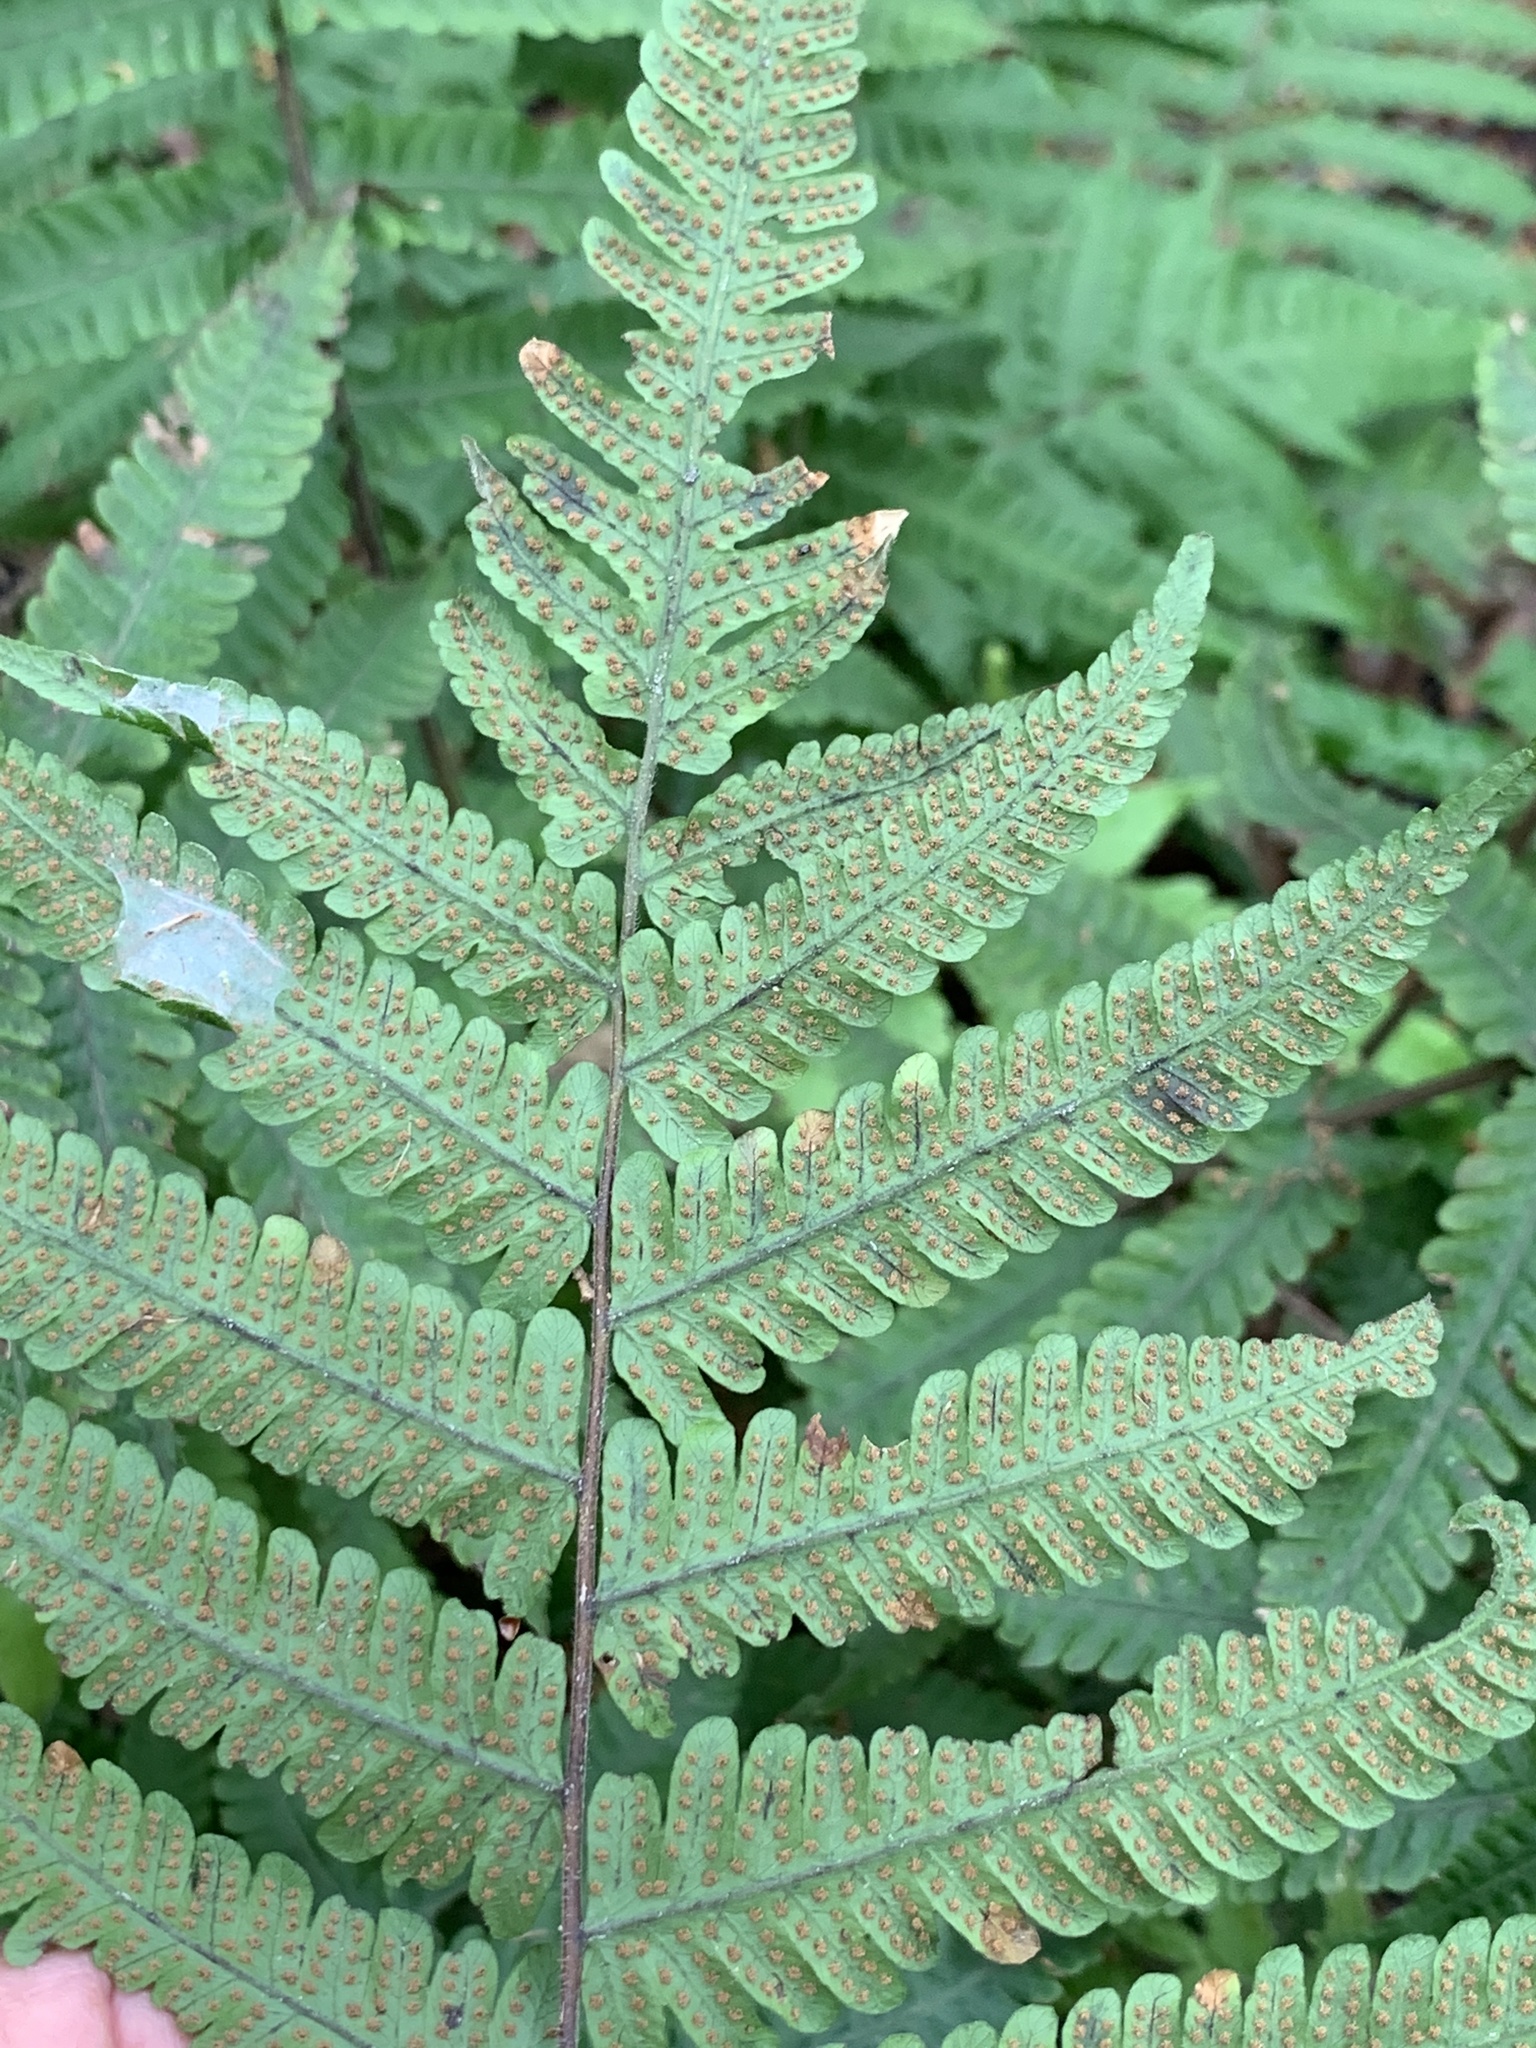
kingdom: Plantae
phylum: Tracheophyta
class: Polypodiopsida
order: Polypodiales
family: Thelypteridaceae
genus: Christella
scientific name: Christella dentata
